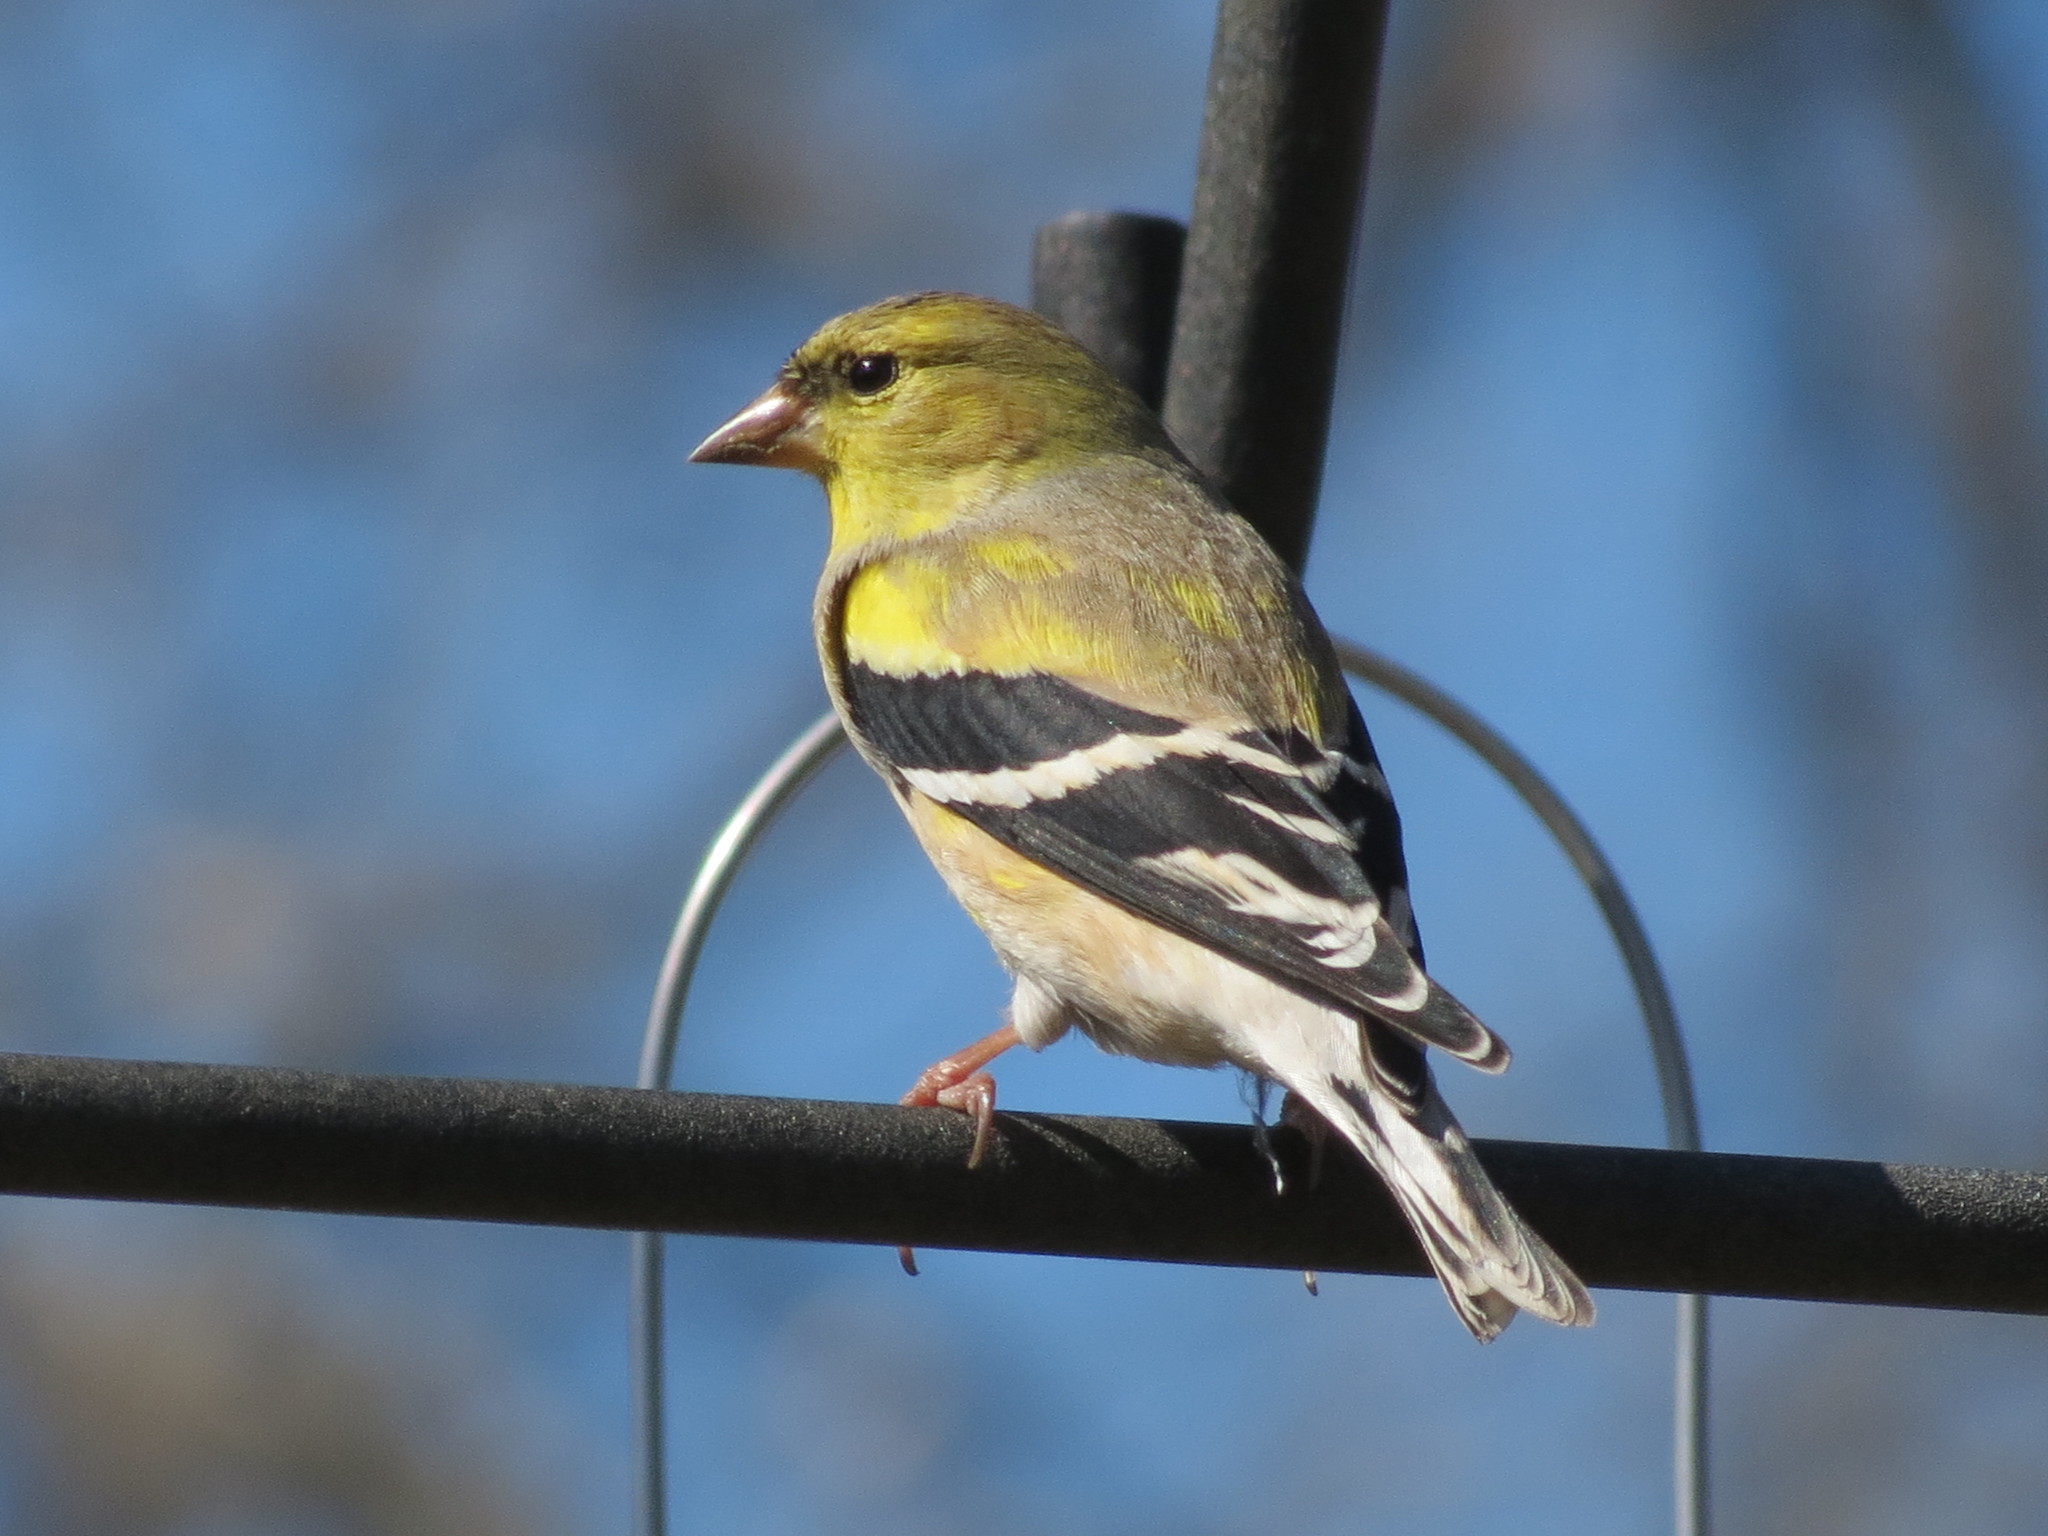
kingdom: Animalia
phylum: Chordata
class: Aves
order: Passeriformes
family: Fringillidae
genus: Spinus
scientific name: Spinus tristis
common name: American goldfinch
